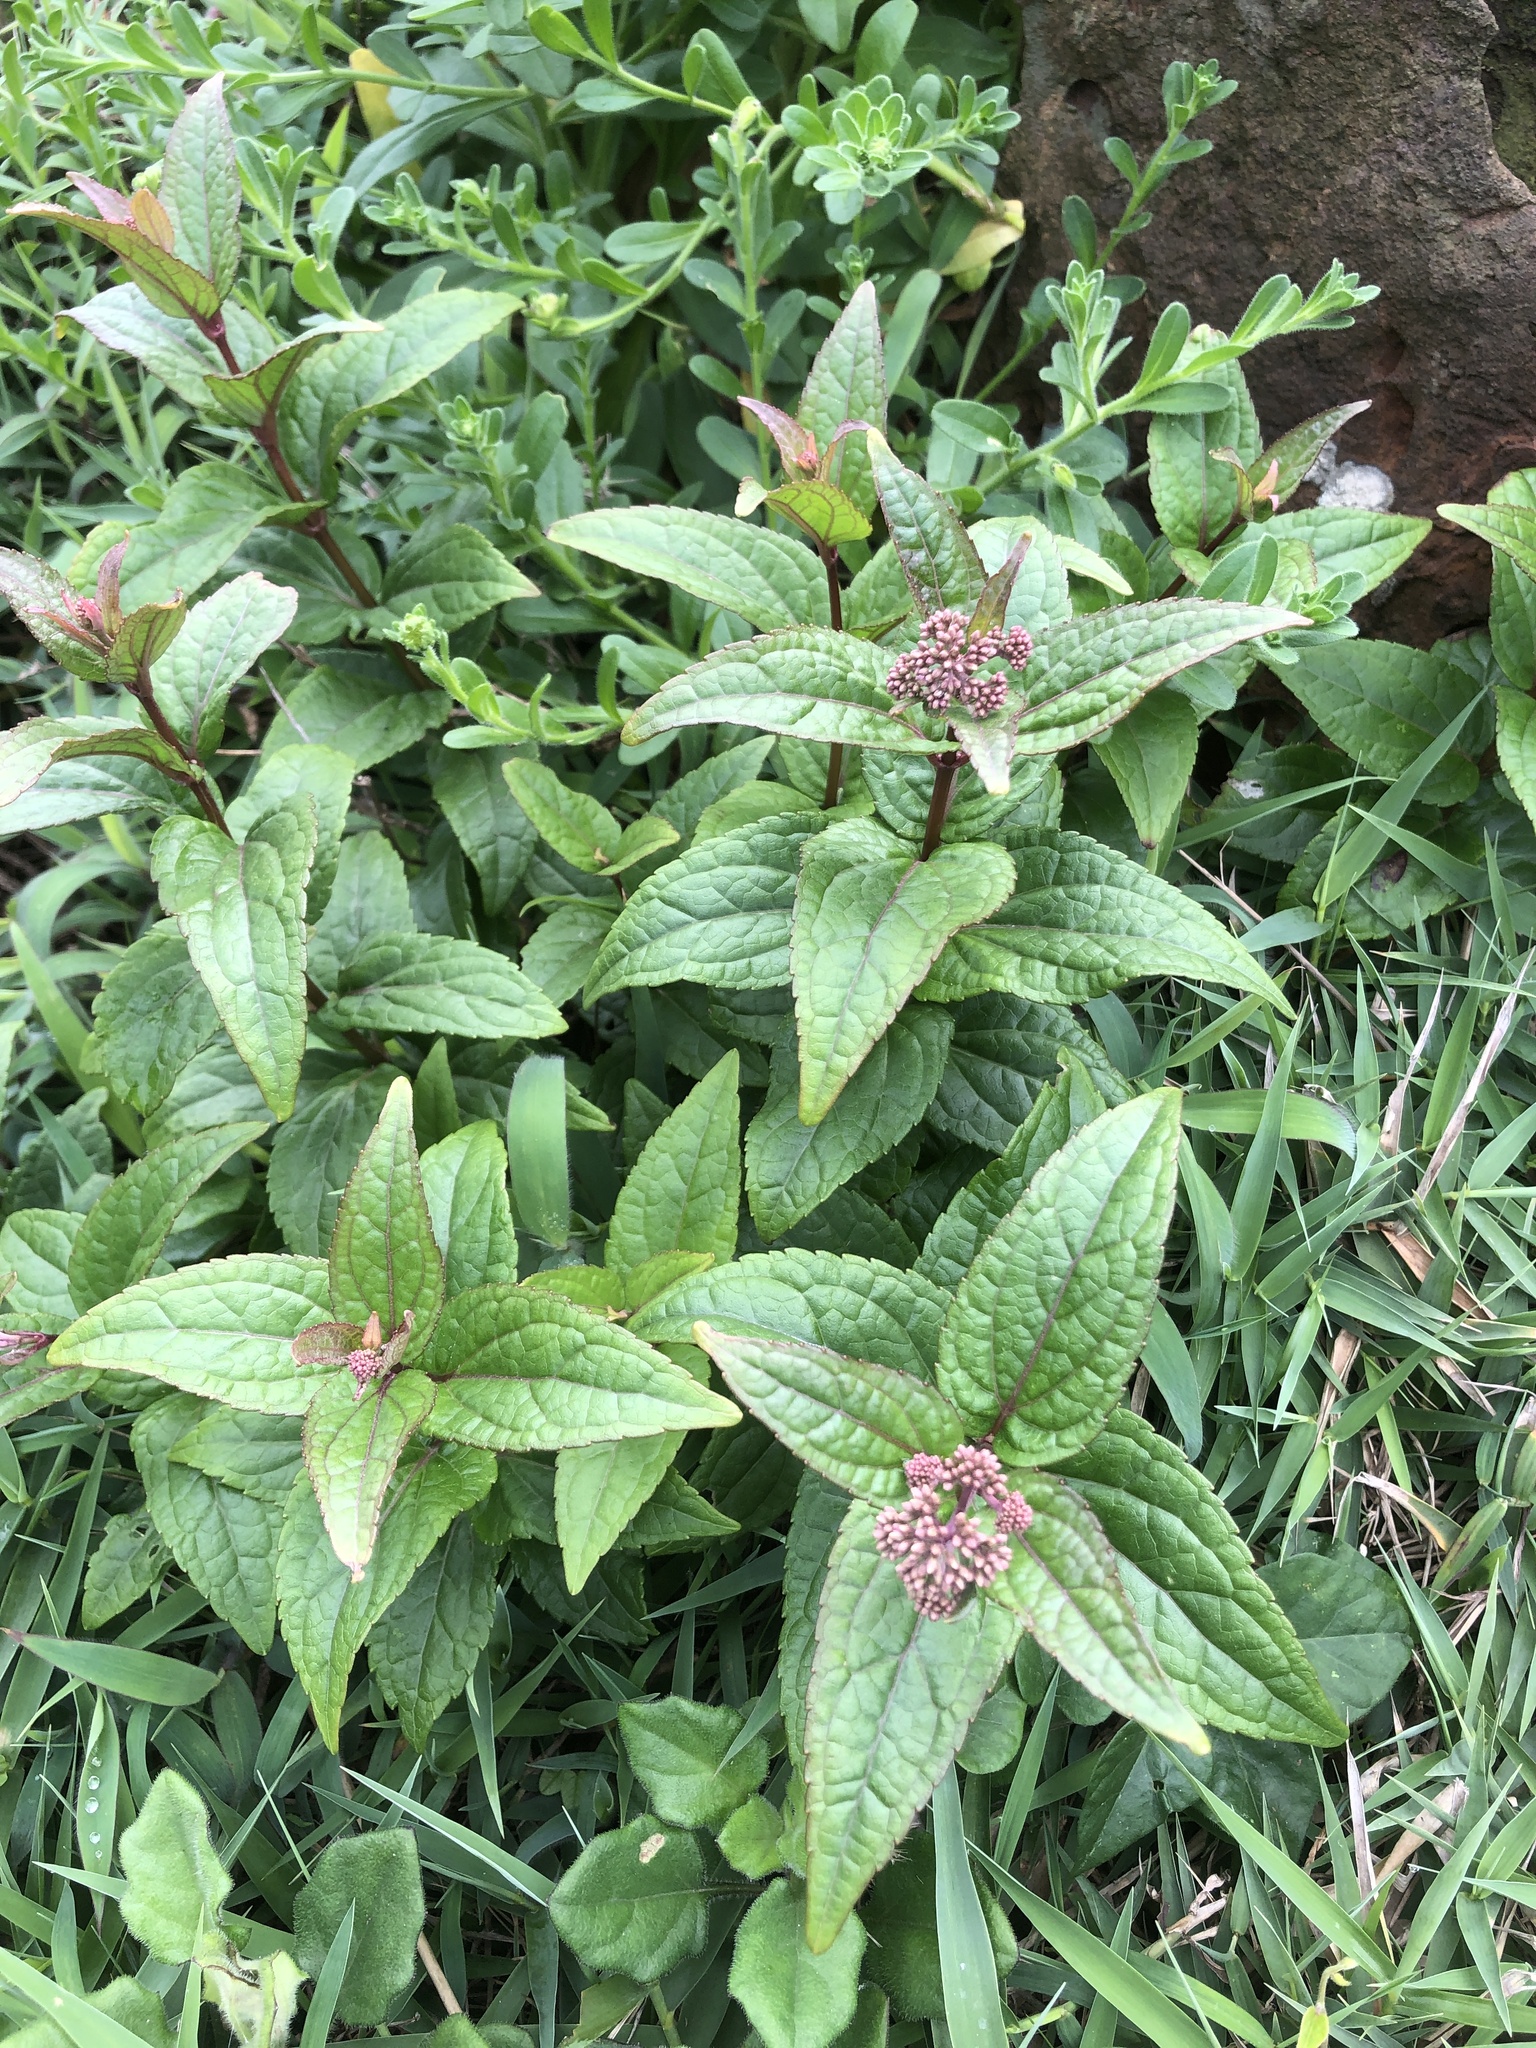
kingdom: Plantae
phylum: Tracheophyta
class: Magnoliopsida
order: Asterales
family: Asteraceae
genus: Eupatorium
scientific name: Eupatorium luchuense
